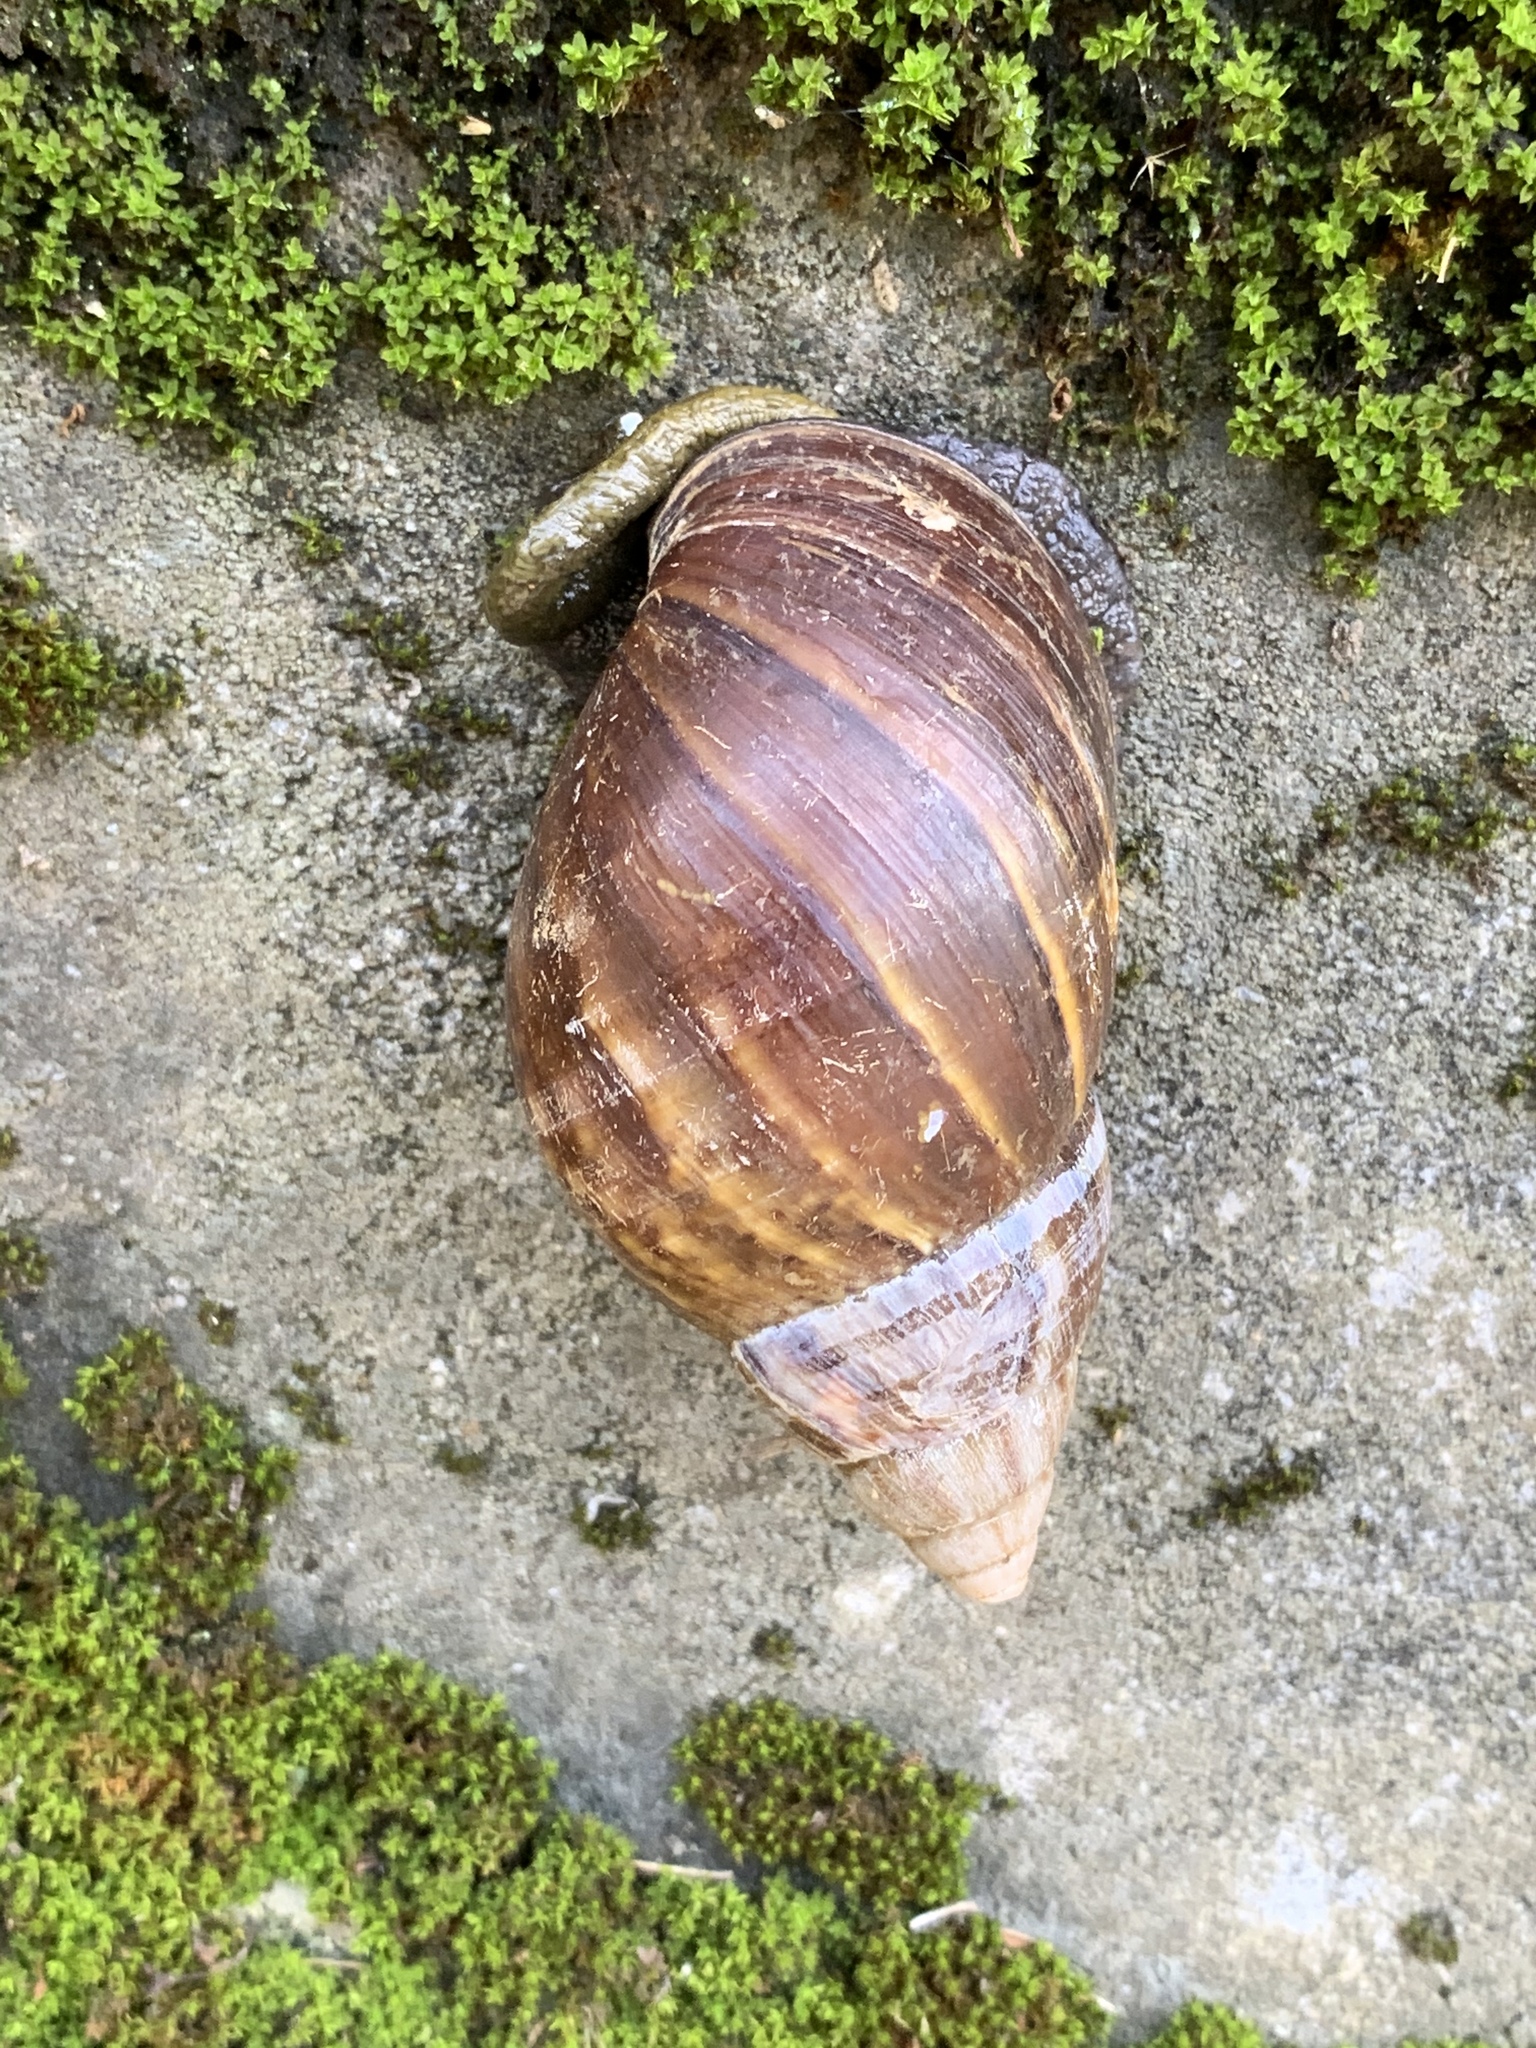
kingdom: Animalia
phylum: Mollusca
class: Gastropoda
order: Stylommatophora
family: Achatinidae
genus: Lissachatina
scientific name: Lissachatina fulica
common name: Giant african snail
